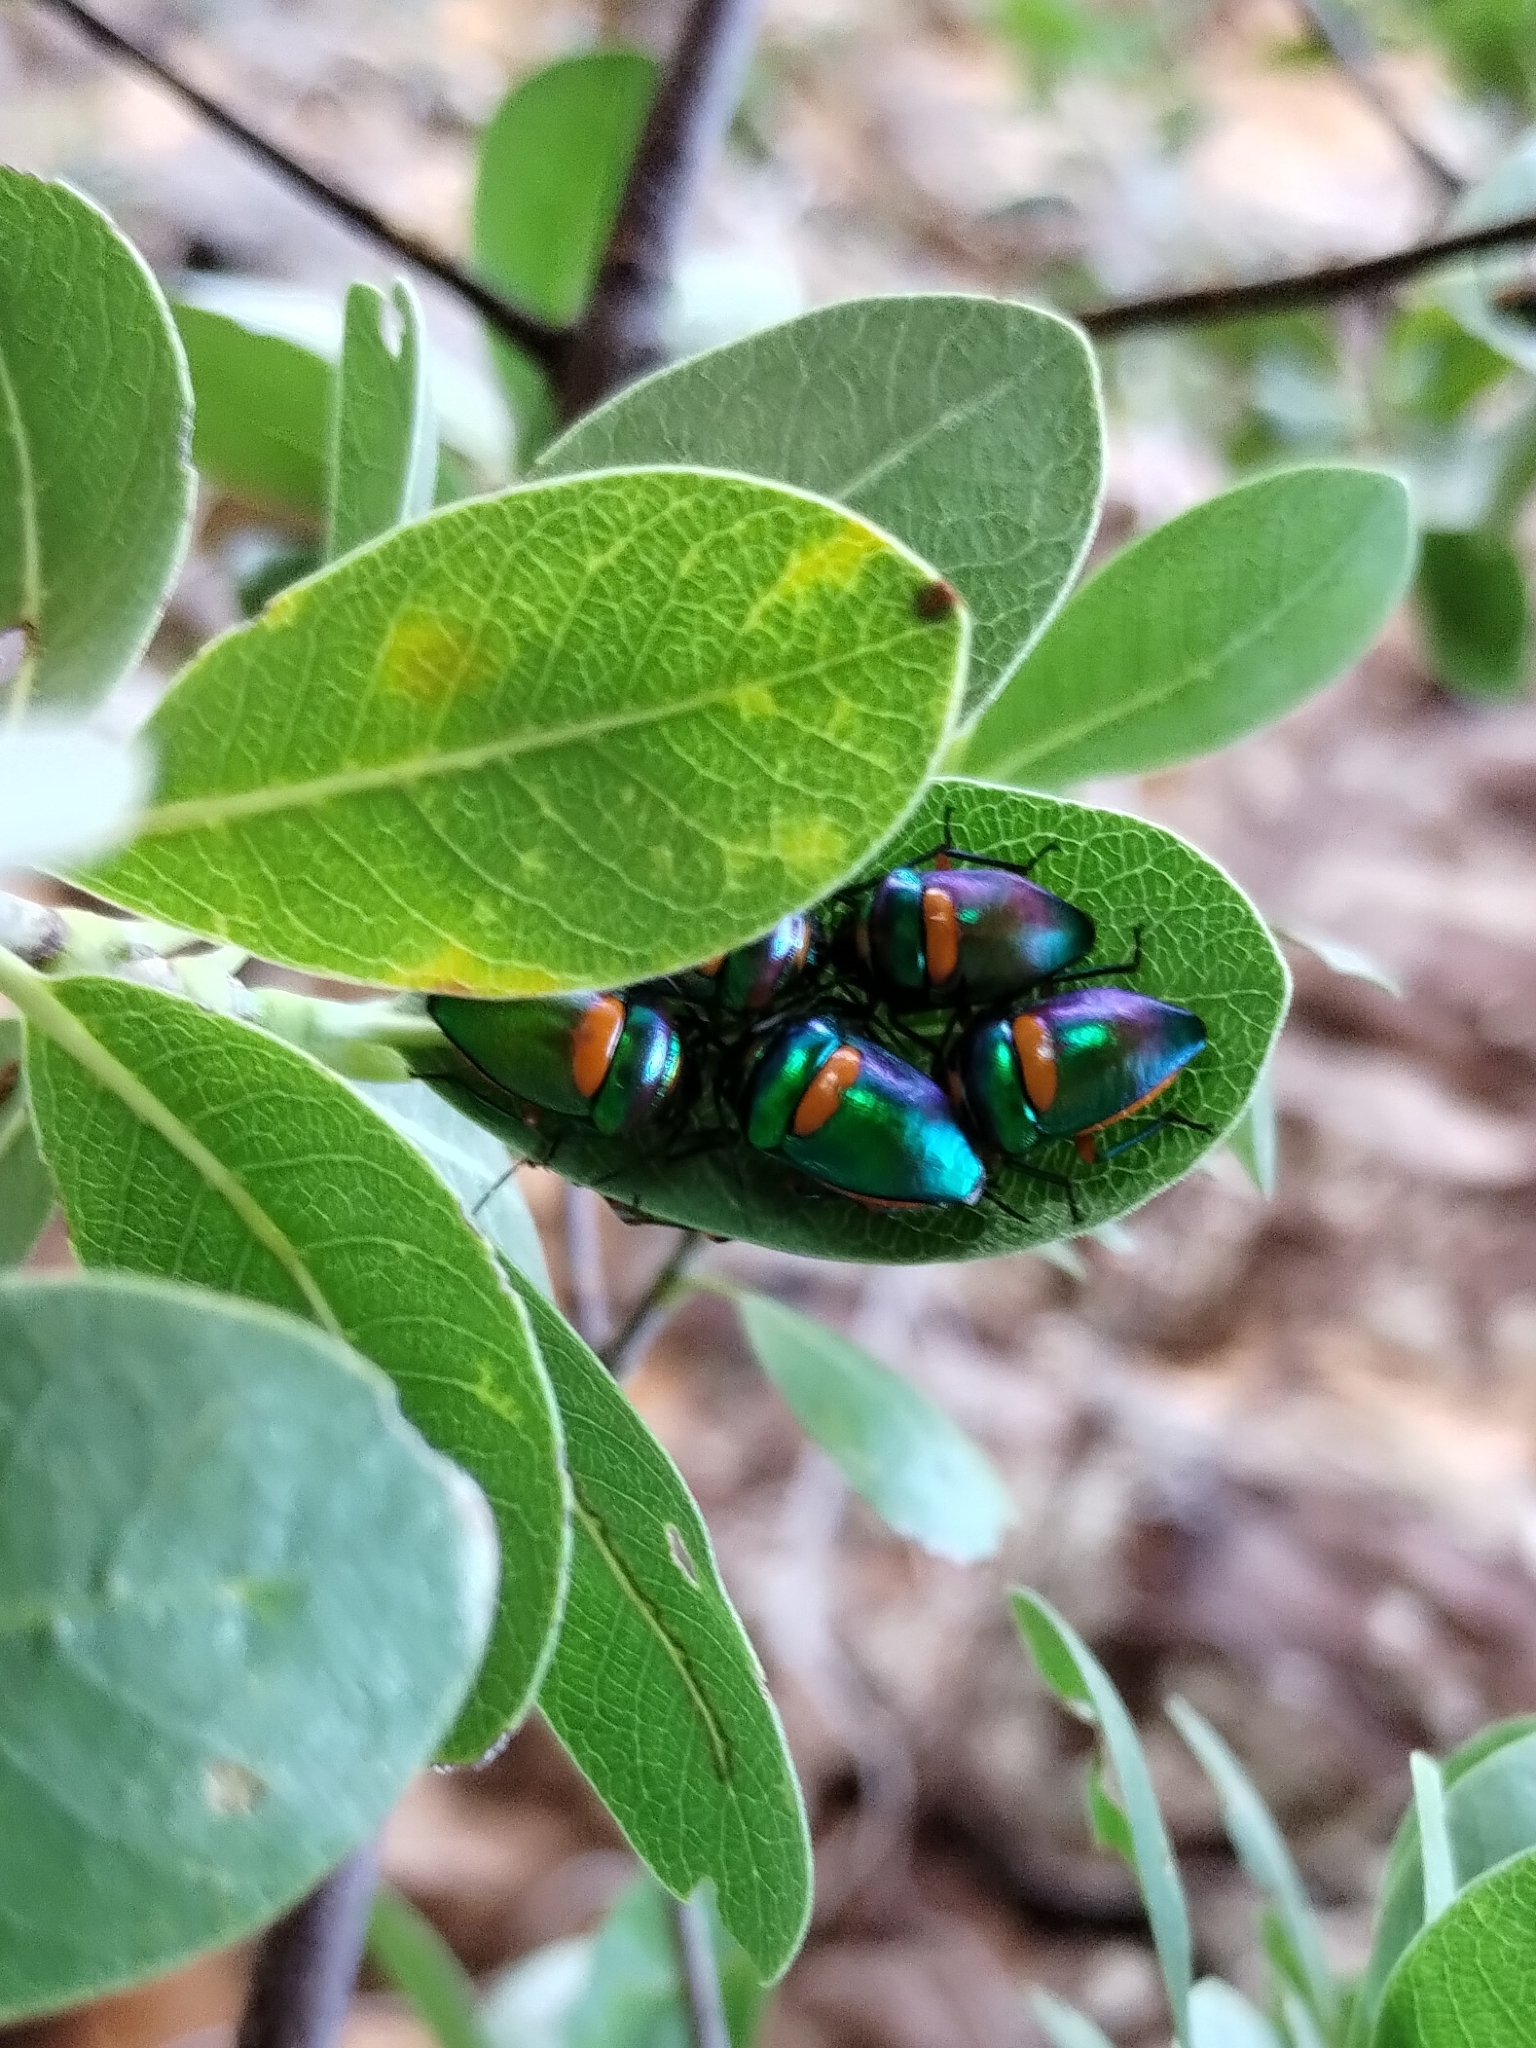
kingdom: Animalia
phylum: Arthropoda
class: Insecta
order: Hemiptera
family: Scutelleridae
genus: Lampromicra
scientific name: Lampromicra senator
